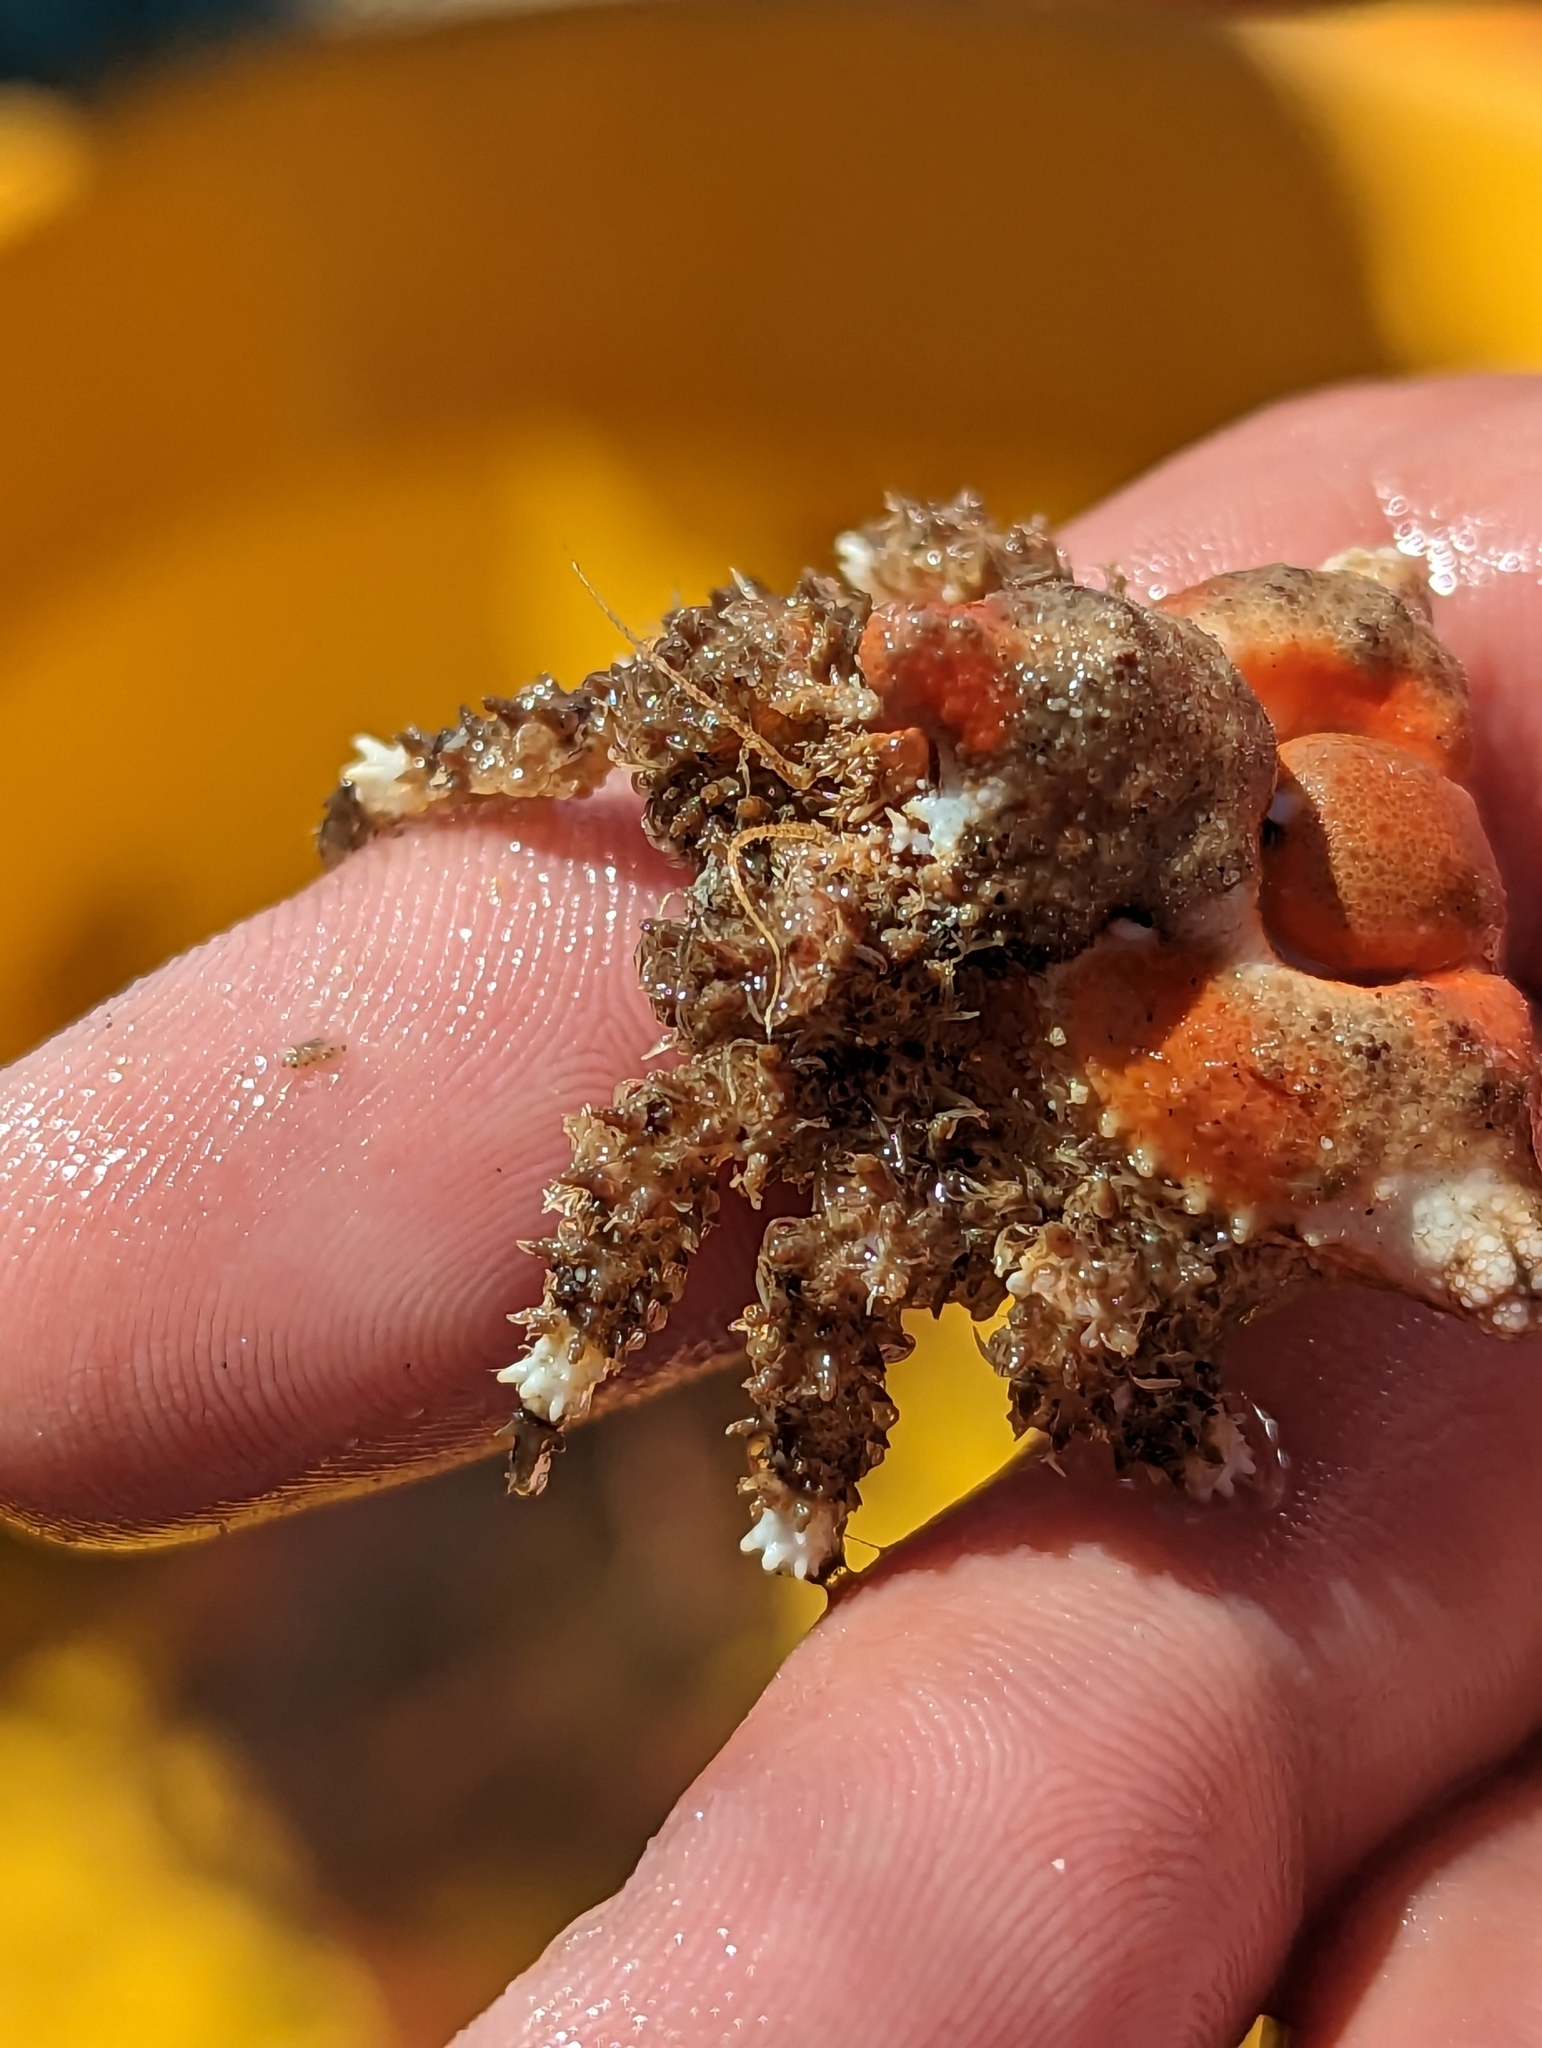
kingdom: Animalia
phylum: Arthropoda
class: Malacostraca
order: Decapoda
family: Lithodidae
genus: Rhinolithodes
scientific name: Rhinolithodes wosnessenskii
